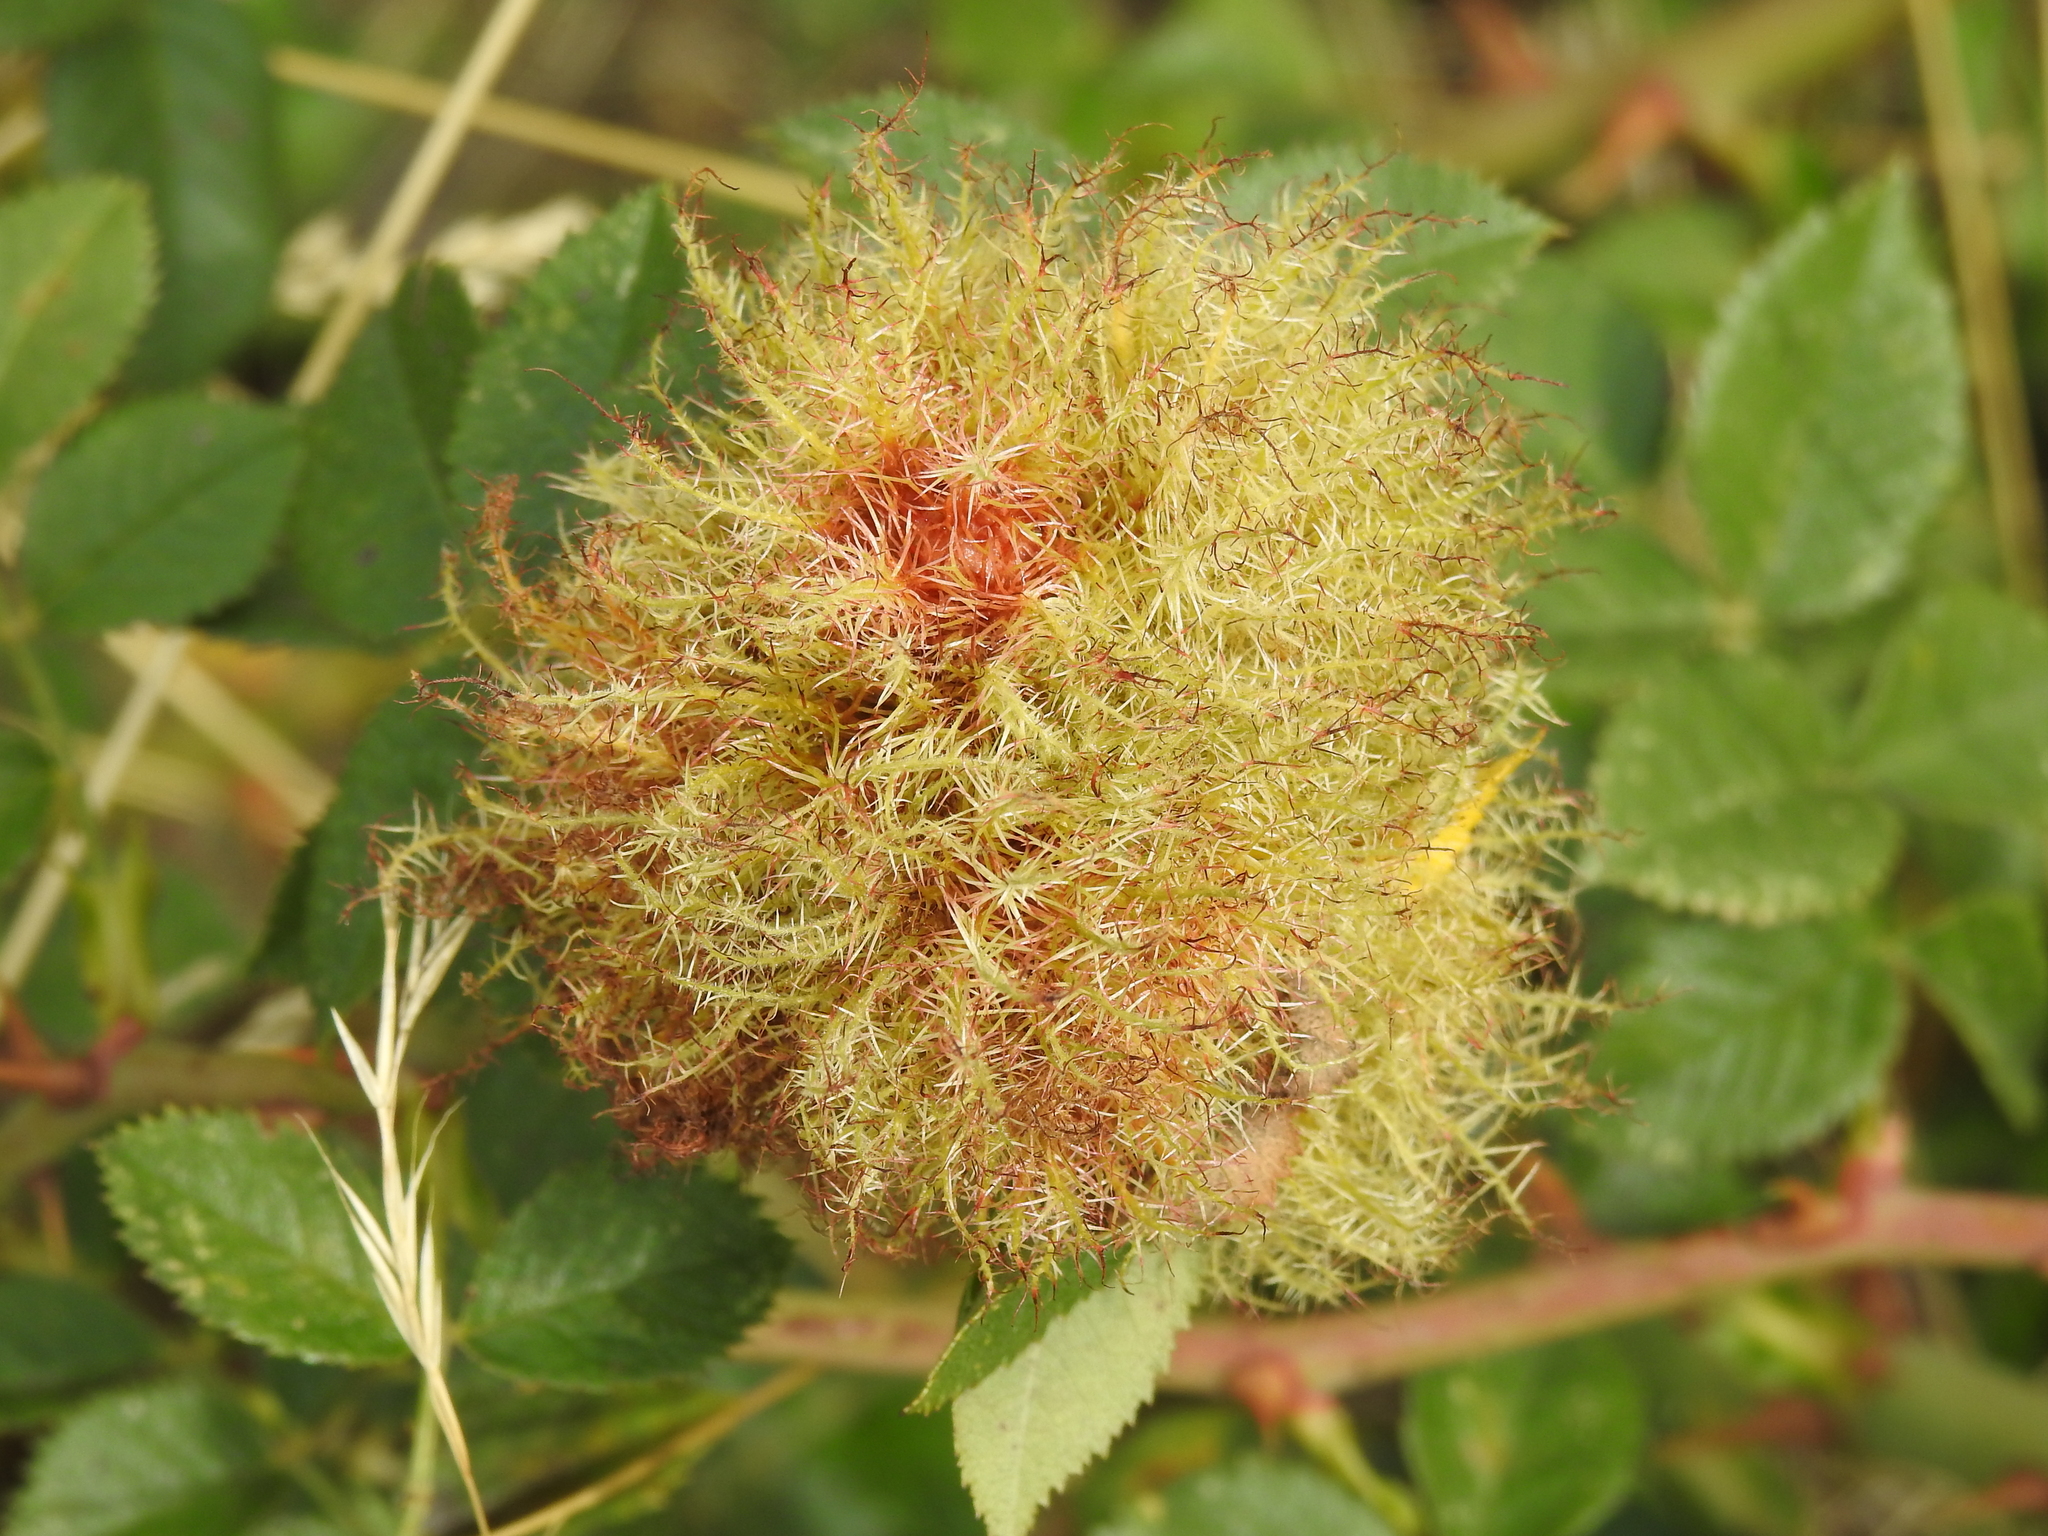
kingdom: Animalia
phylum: Arthropoda
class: Insecta
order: Hymenoptera
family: Cynipidae
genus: Diplolepis
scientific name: Diplolepis rosae
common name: Bedeguar gall
